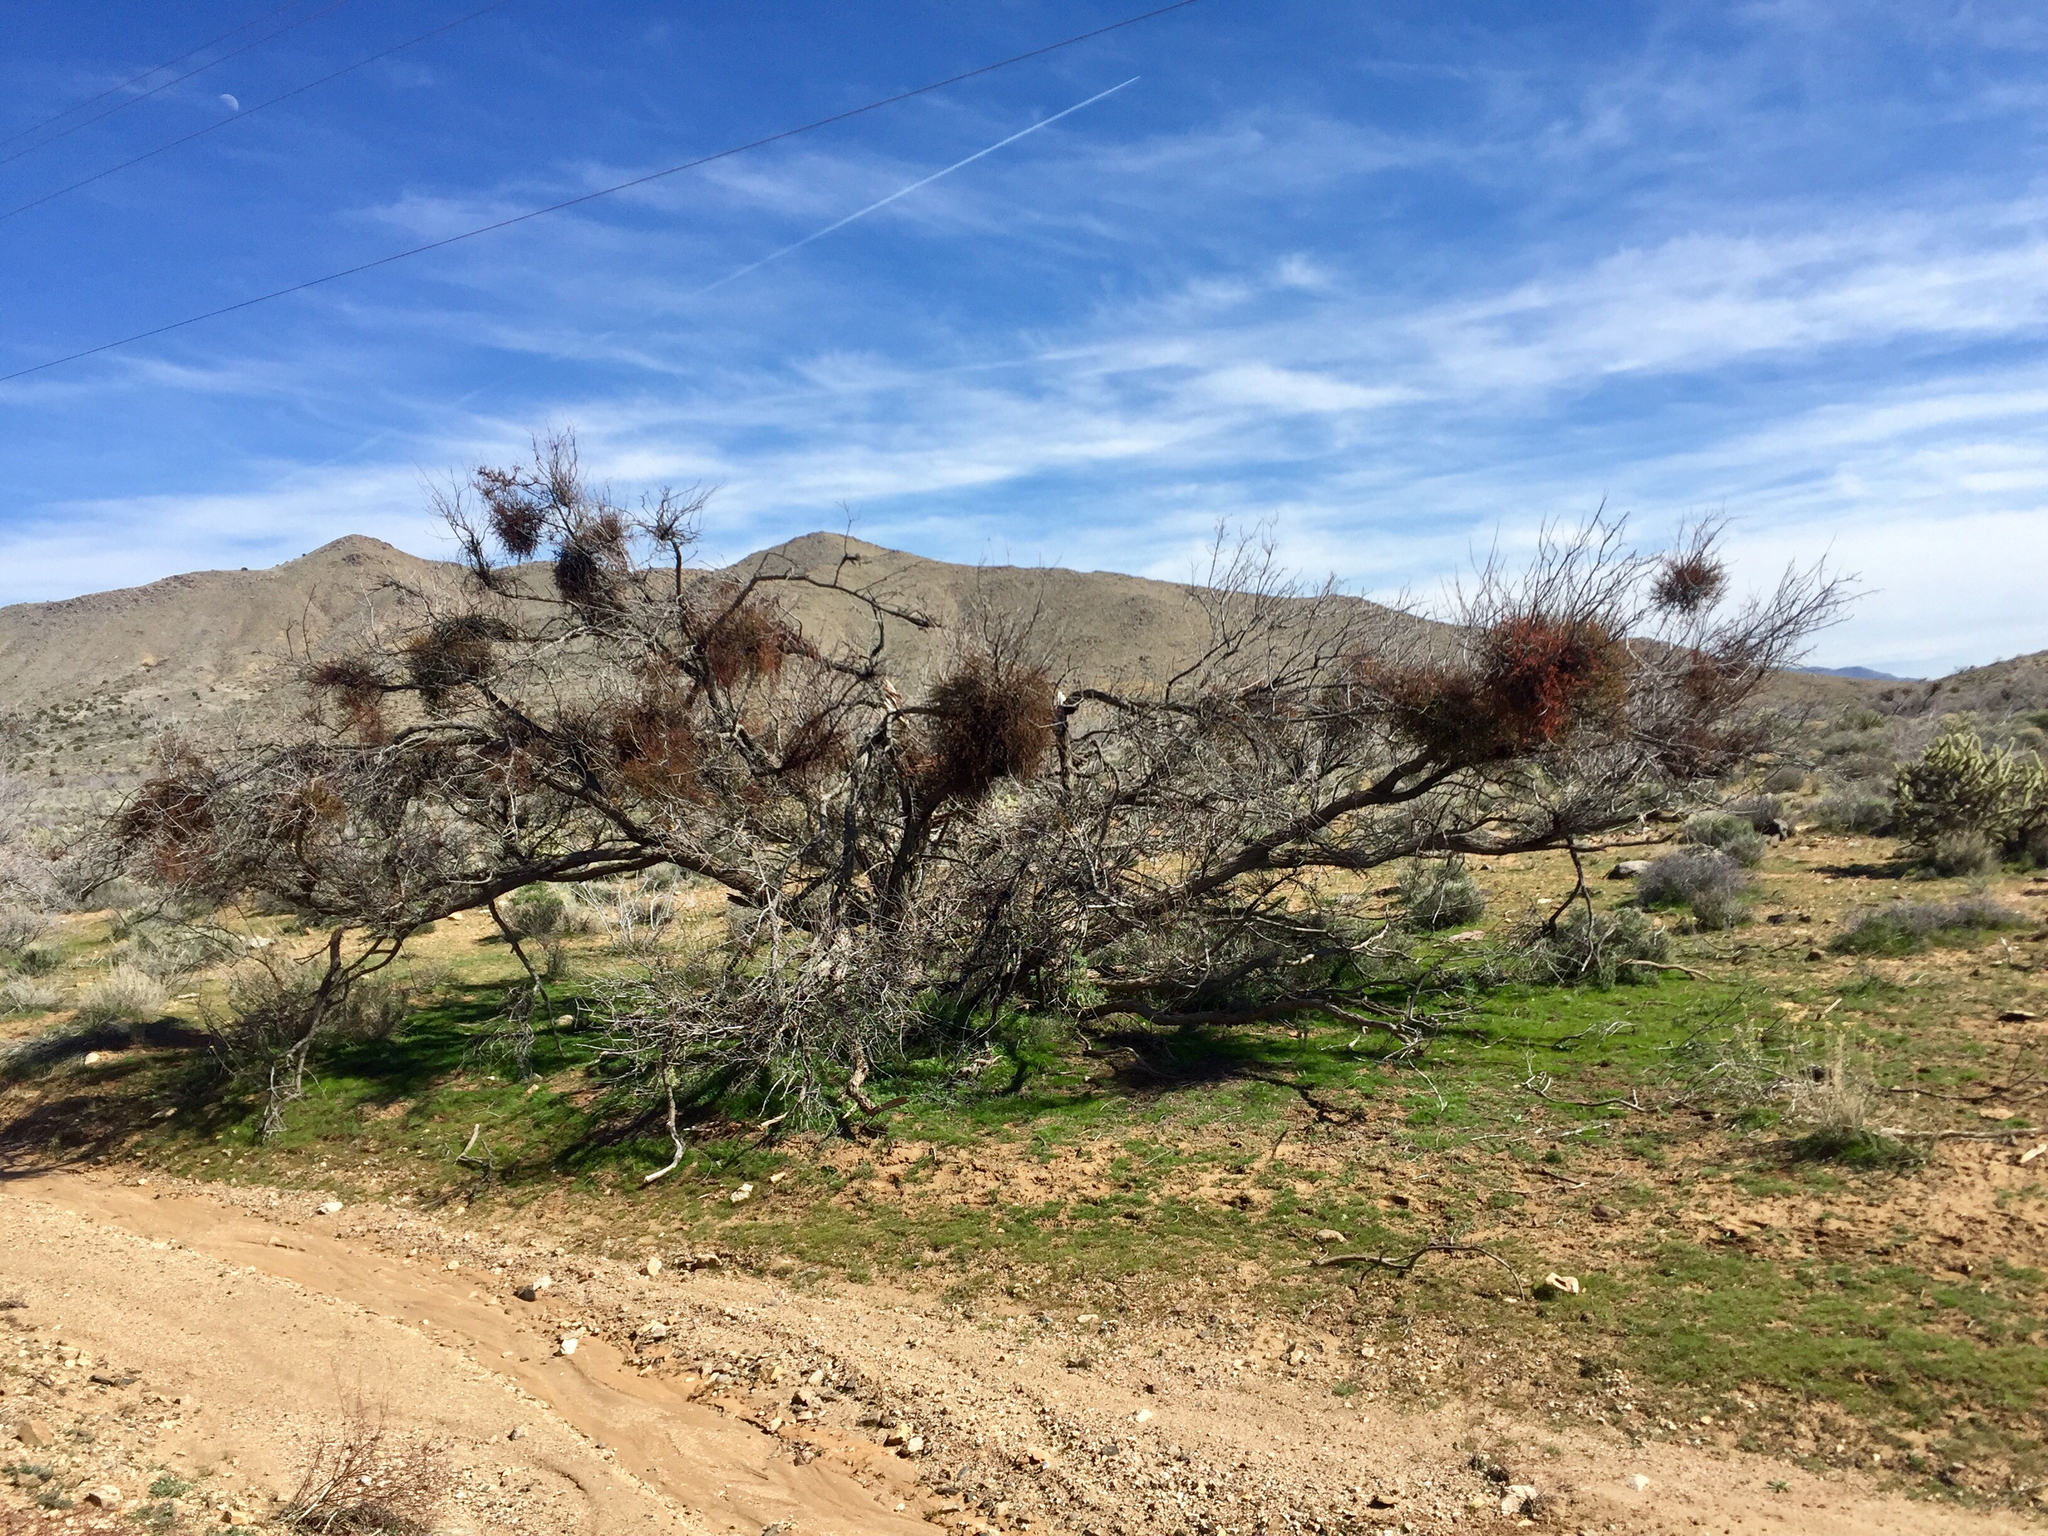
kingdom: Plantae
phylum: Tracheophyta
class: Magnoliopsida
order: Fabales
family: Fabaceae
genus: Senegalia
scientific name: Senegalia greggii
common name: Texas-mimosa
